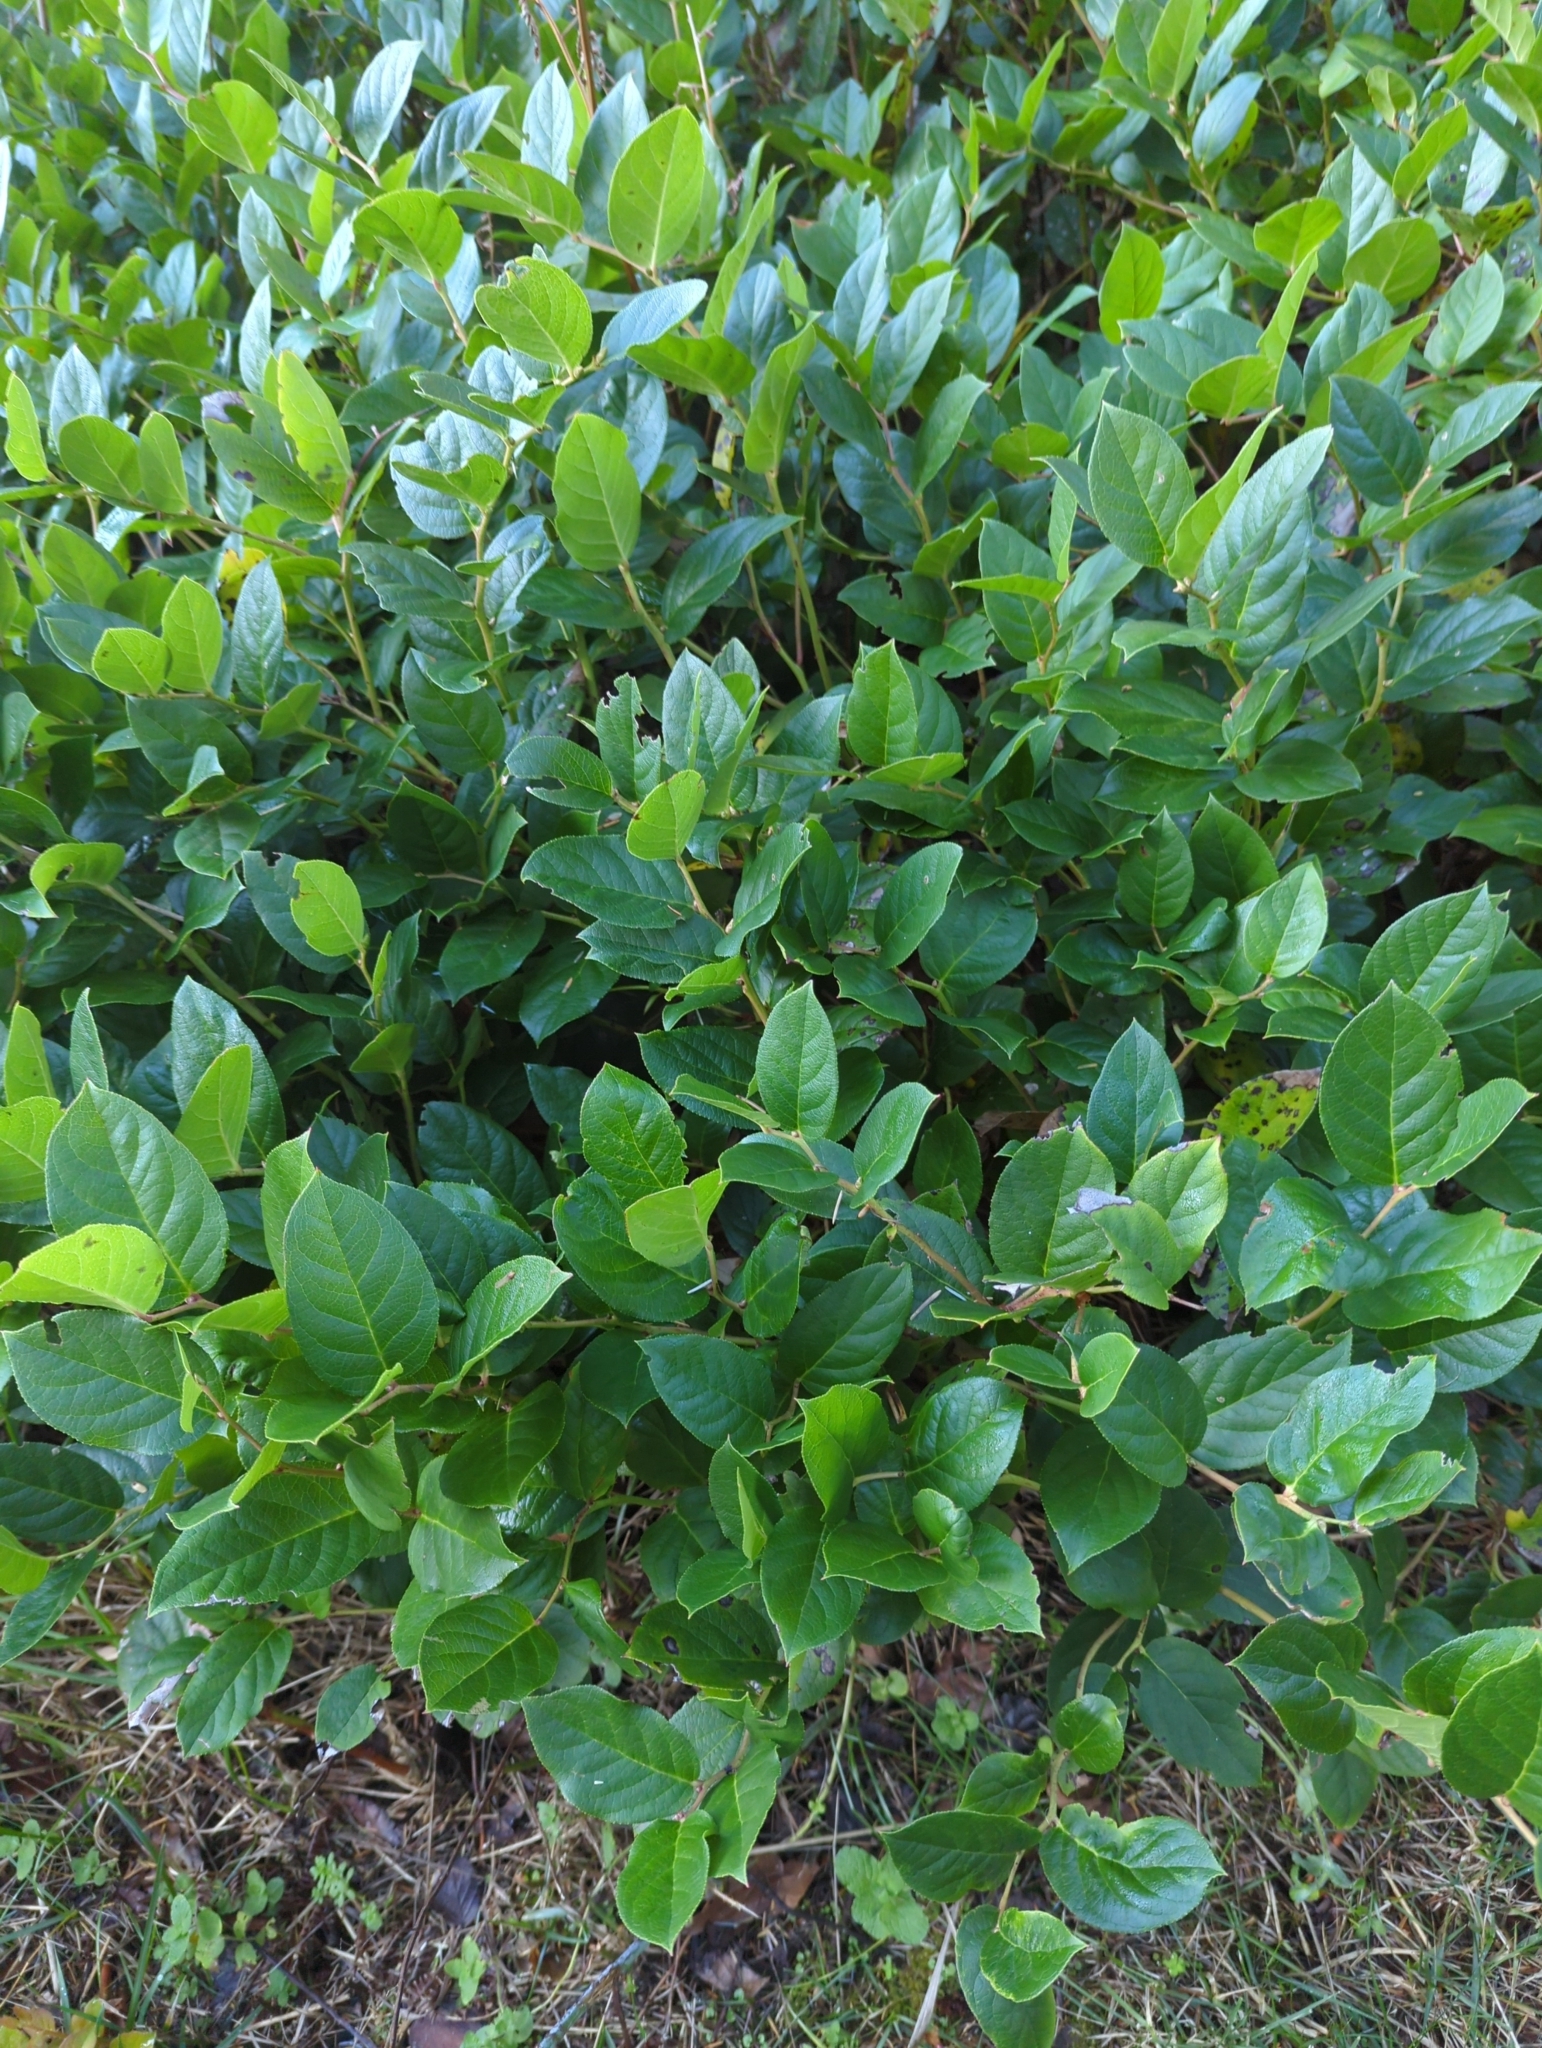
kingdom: Plantae
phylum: Tracheophyta
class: Magnoliopsida
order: Ericales
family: Ericaceae
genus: Gaultheria
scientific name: Gaultheria shallon
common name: Shallon
